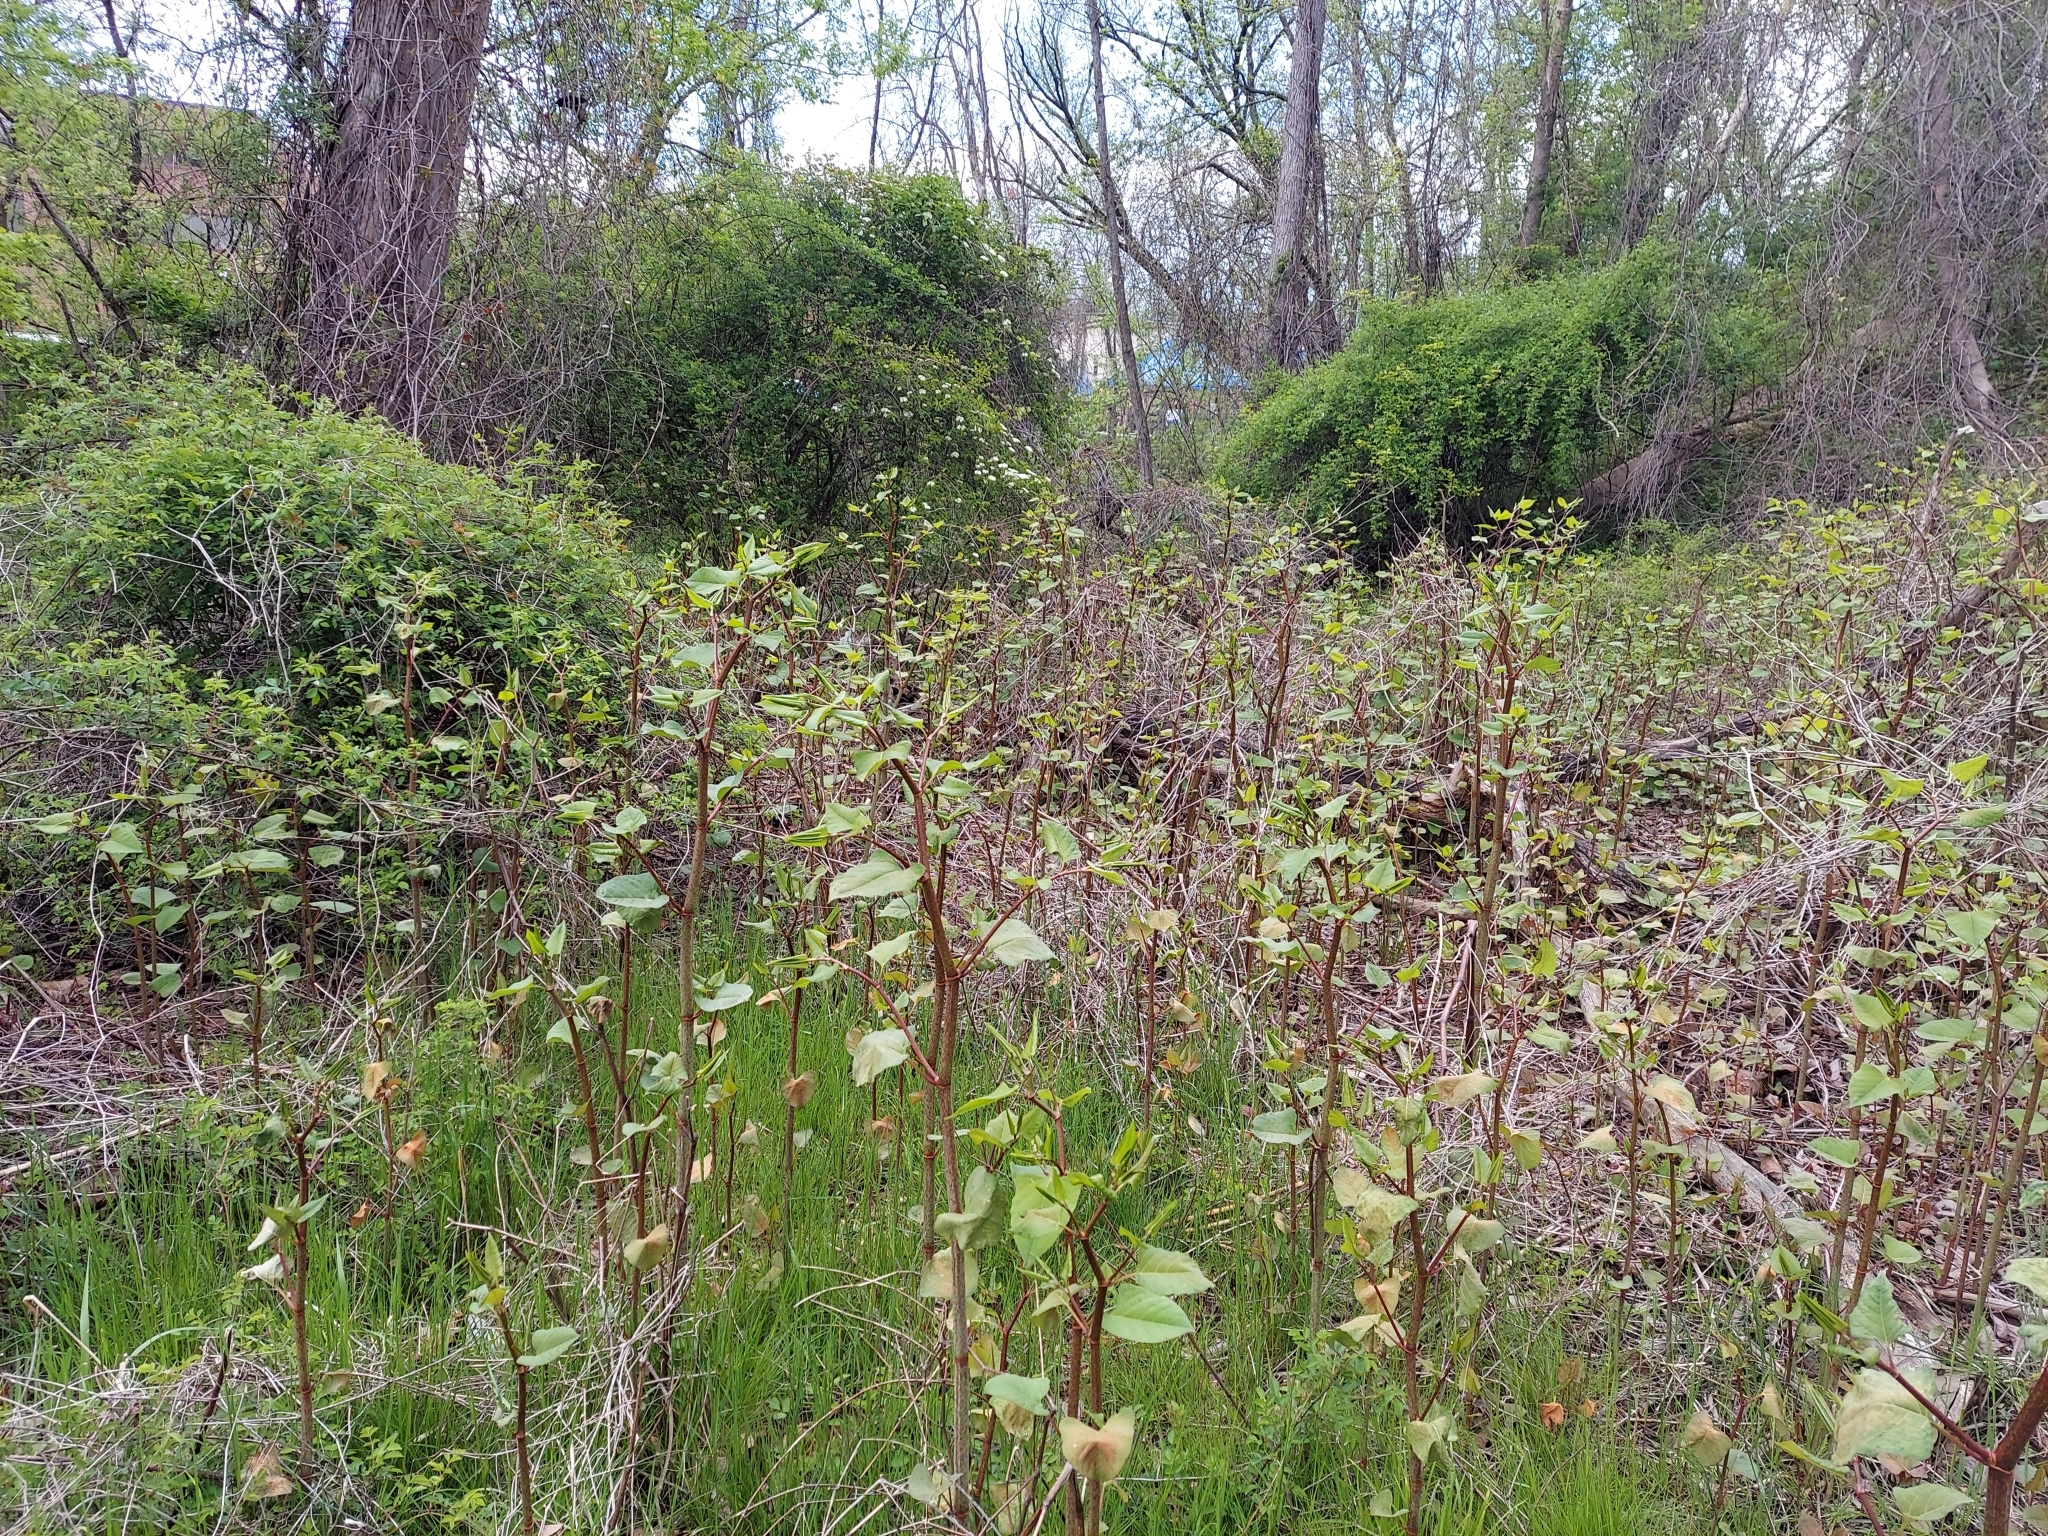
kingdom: Plantae
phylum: Tracheophyta
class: Magnoliopsida
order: Caryophyllales
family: Polygonaceae
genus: Reynoutria
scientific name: Reynoutria japonica
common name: Japanese knotweed
